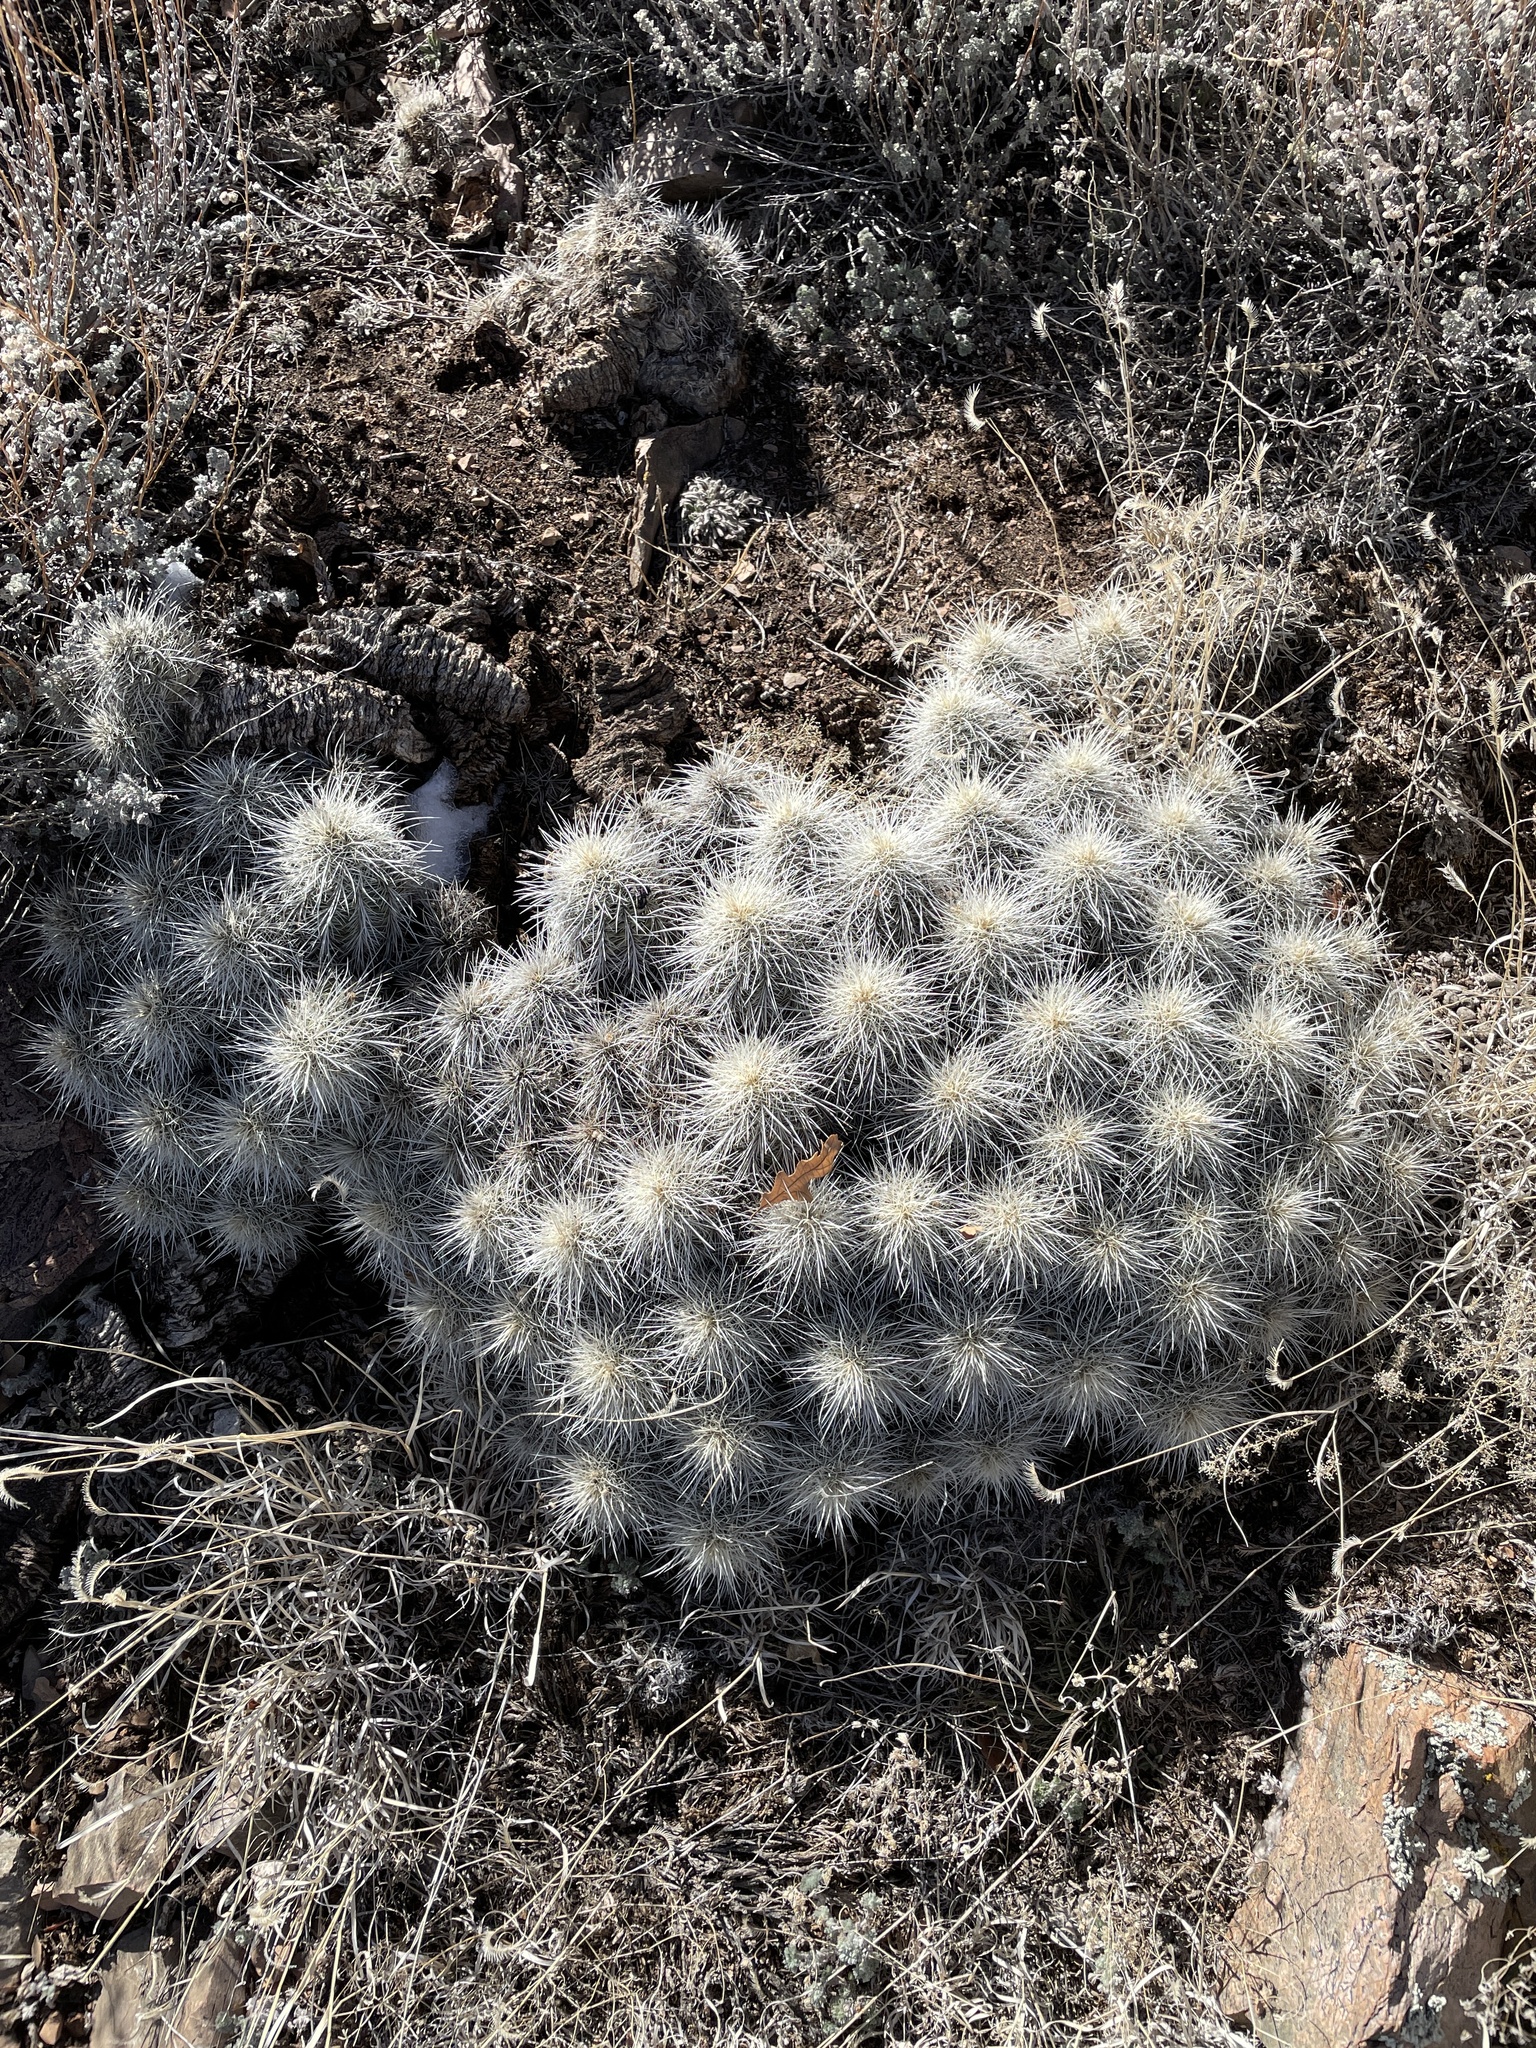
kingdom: Plantae
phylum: Tracheophyta
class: Magnoliopsida
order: Caryophyllales
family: Cactaceae
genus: Echinocereus
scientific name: Echinocereus coccineus
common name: Scarlet hedgehog cactus
